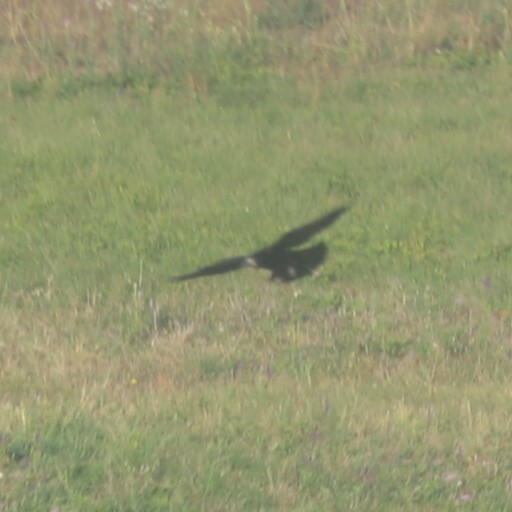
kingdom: Animalia
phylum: Chordata
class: Aves
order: Passeriformes
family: Corvidae
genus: Corvus
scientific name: Corvus frugilegus
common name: Rook
